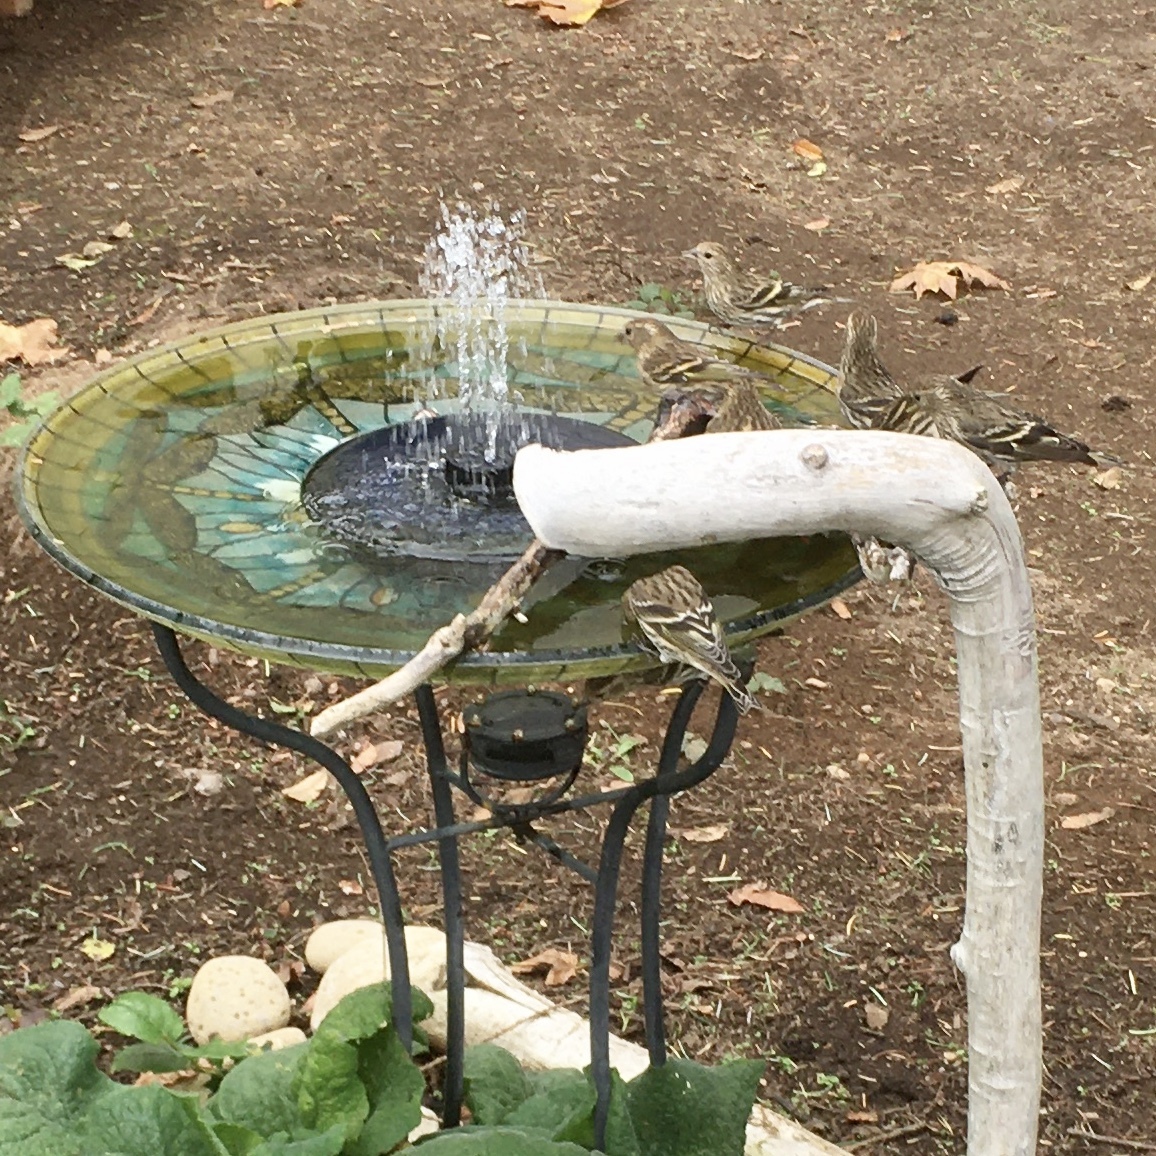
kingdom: Animalia
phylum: Chordata
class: Aves
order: Passeriformes
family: Fringillidae
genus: Spinus
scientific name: Spinus pinus
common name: Pine siskin
